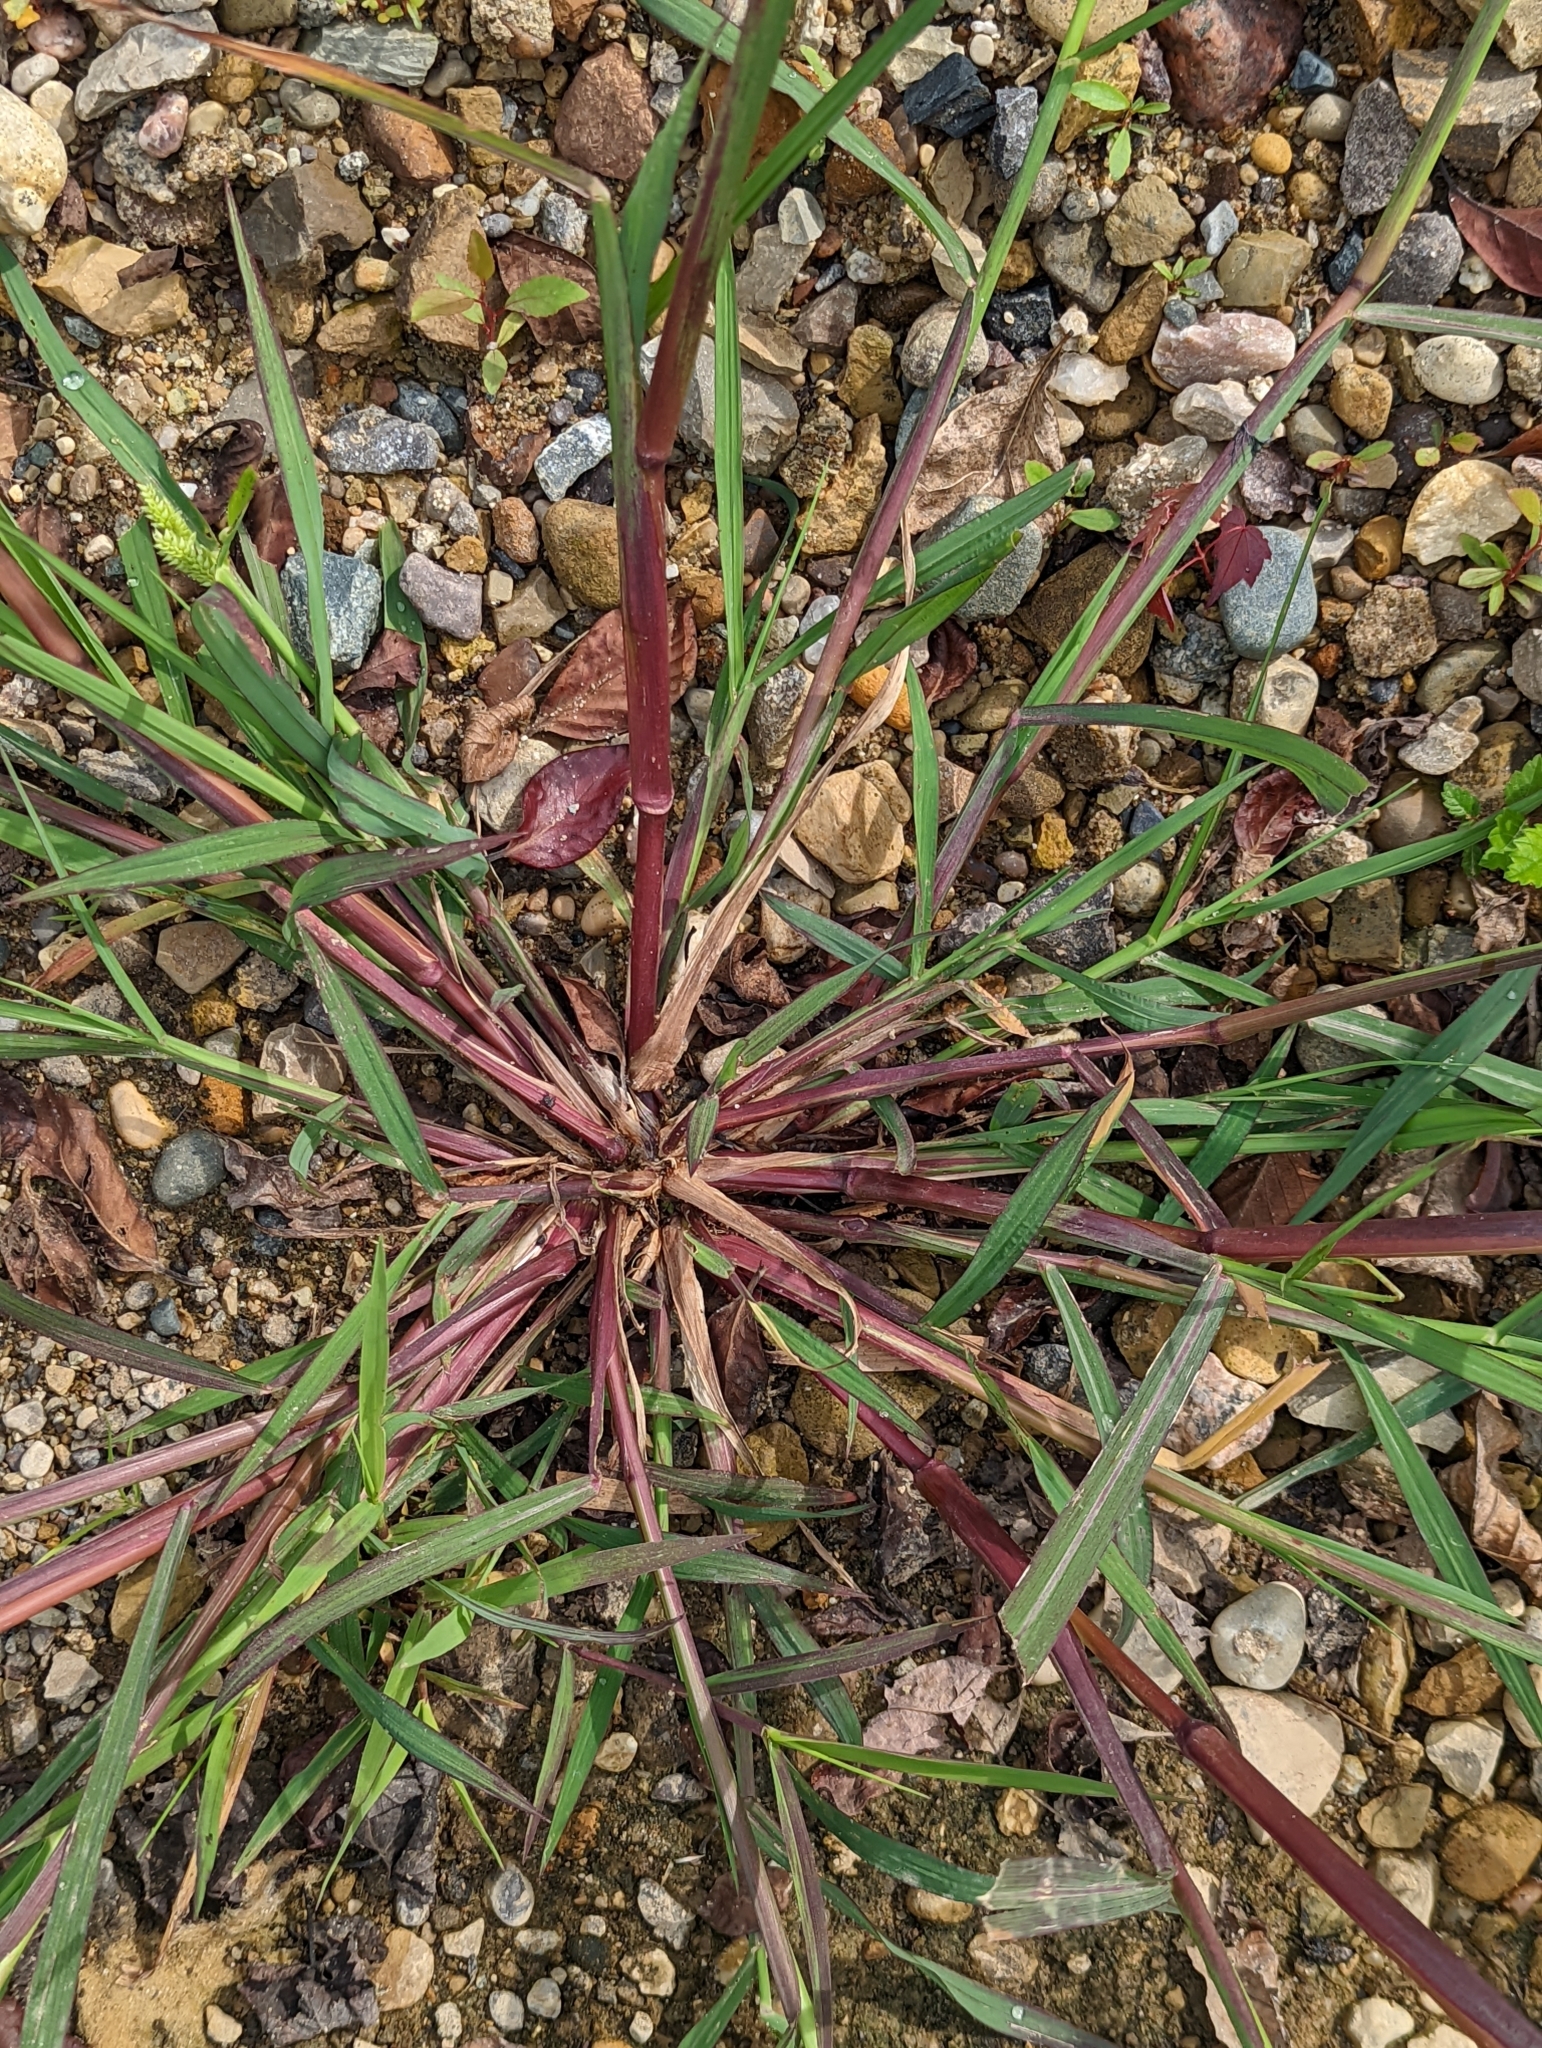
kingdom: Plantae
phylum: Tracheophyta
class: Liliopsida
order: Poales
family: Poaceae
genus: Echinochloa
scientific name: Echinochloa crus-galli
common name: Cockspur
